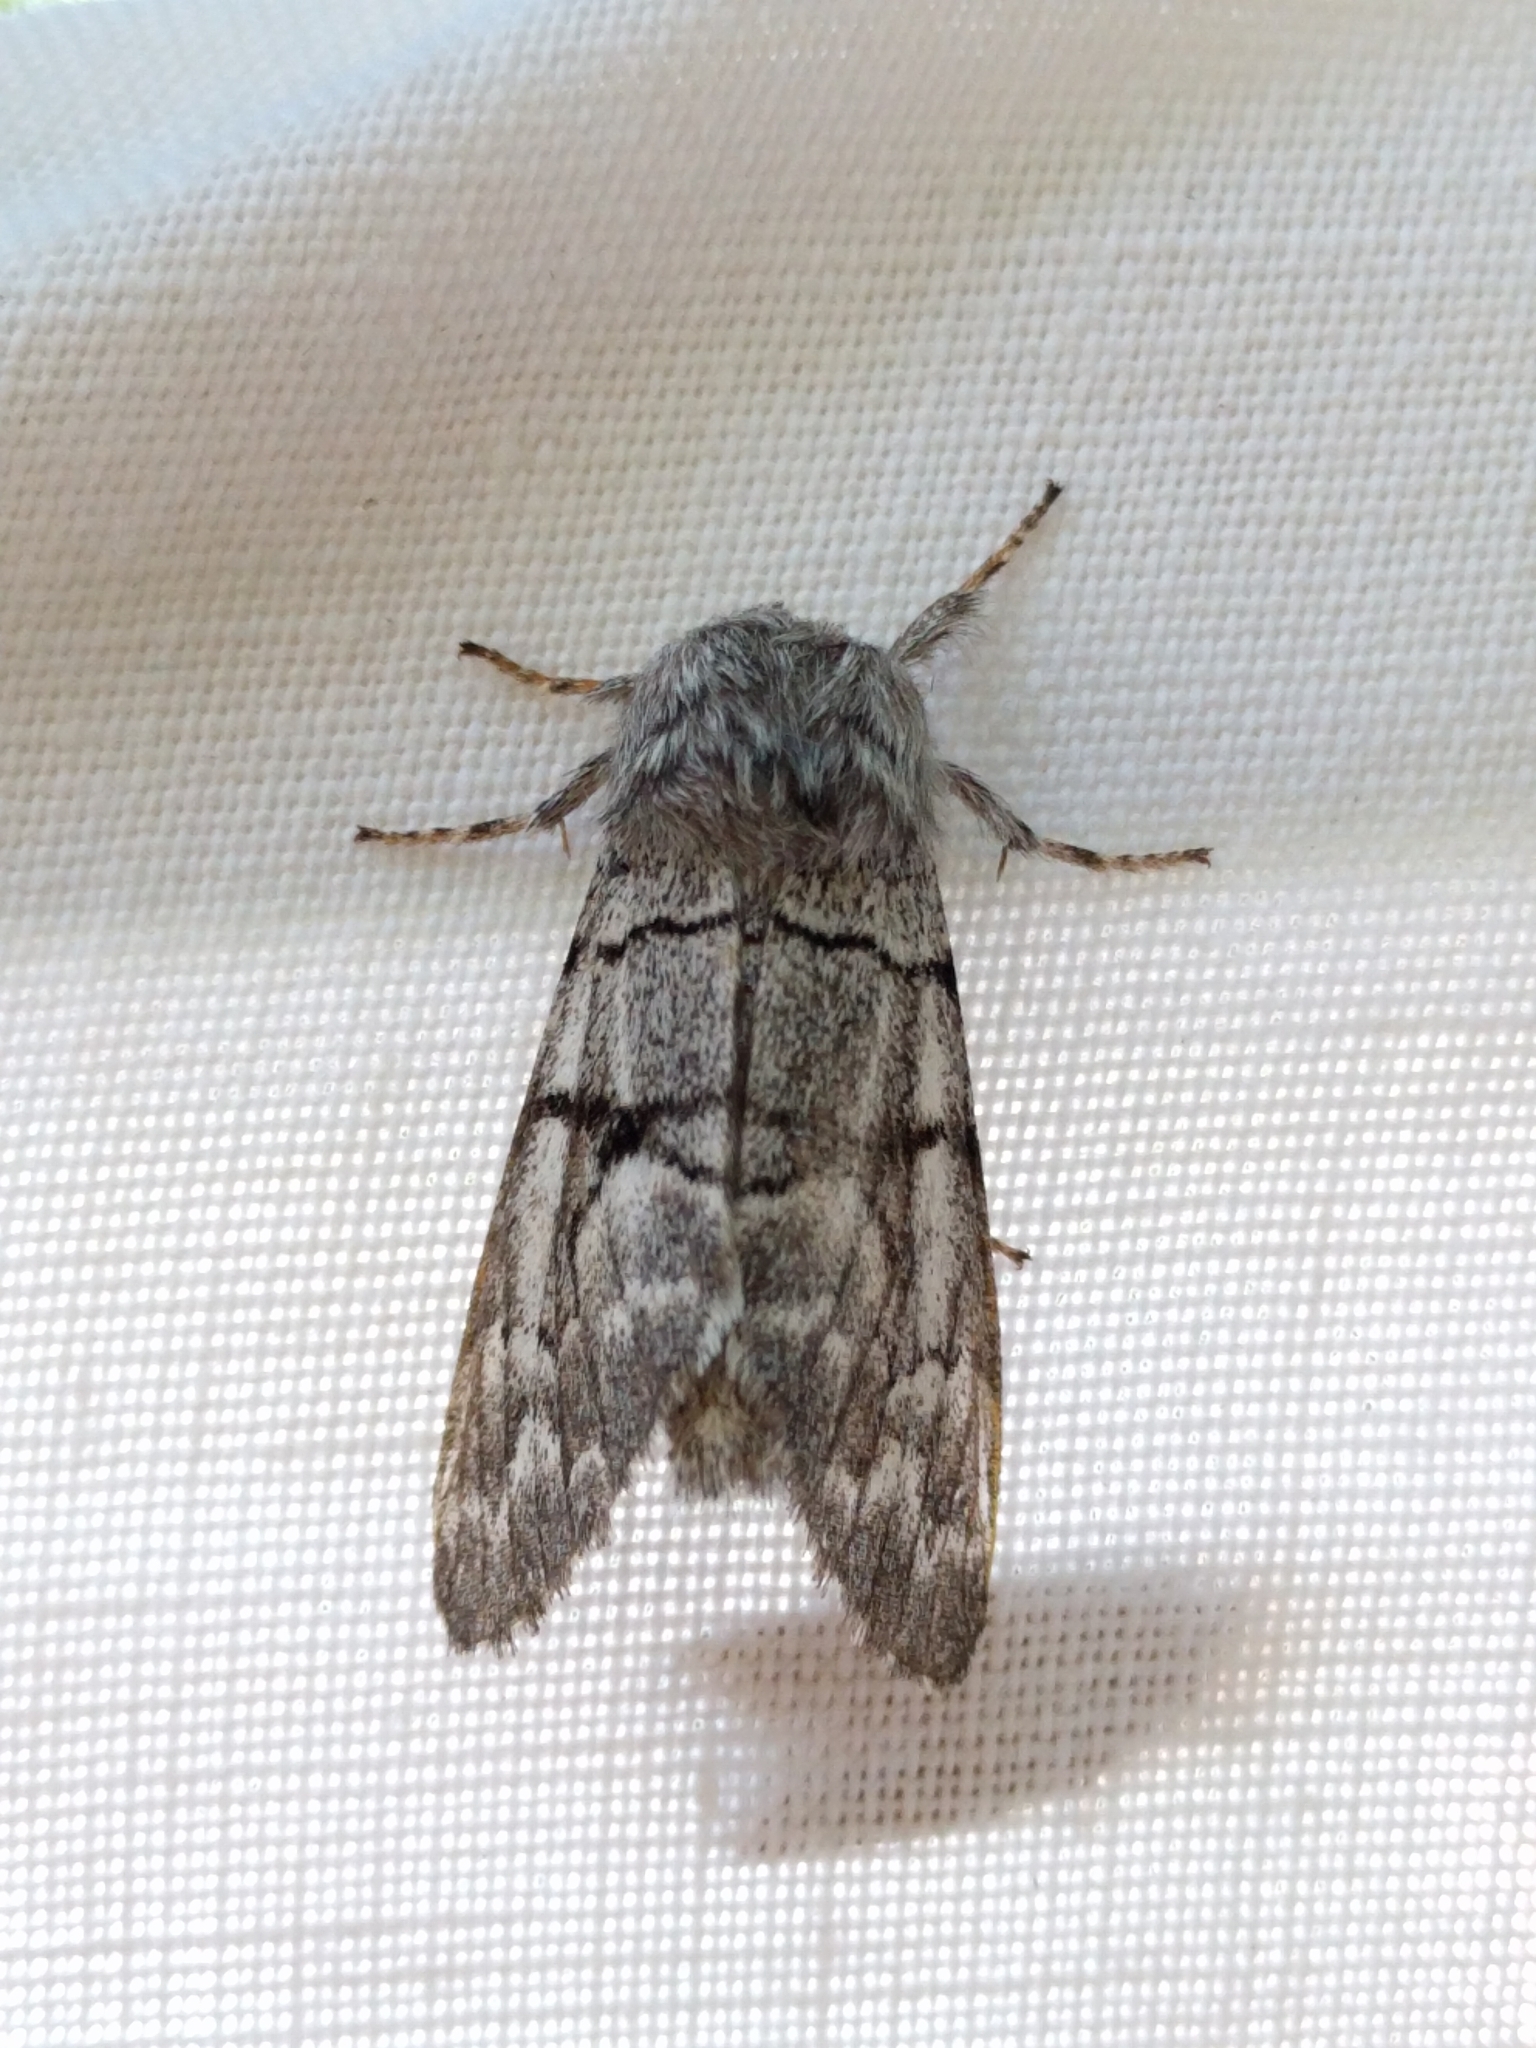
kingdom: Animalia
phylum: Arthropoda
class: Insecta
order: Lepidoptera
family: Noctuidae
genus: Panthea
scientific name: Panthea furcilla
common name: Eastern panthea moth
